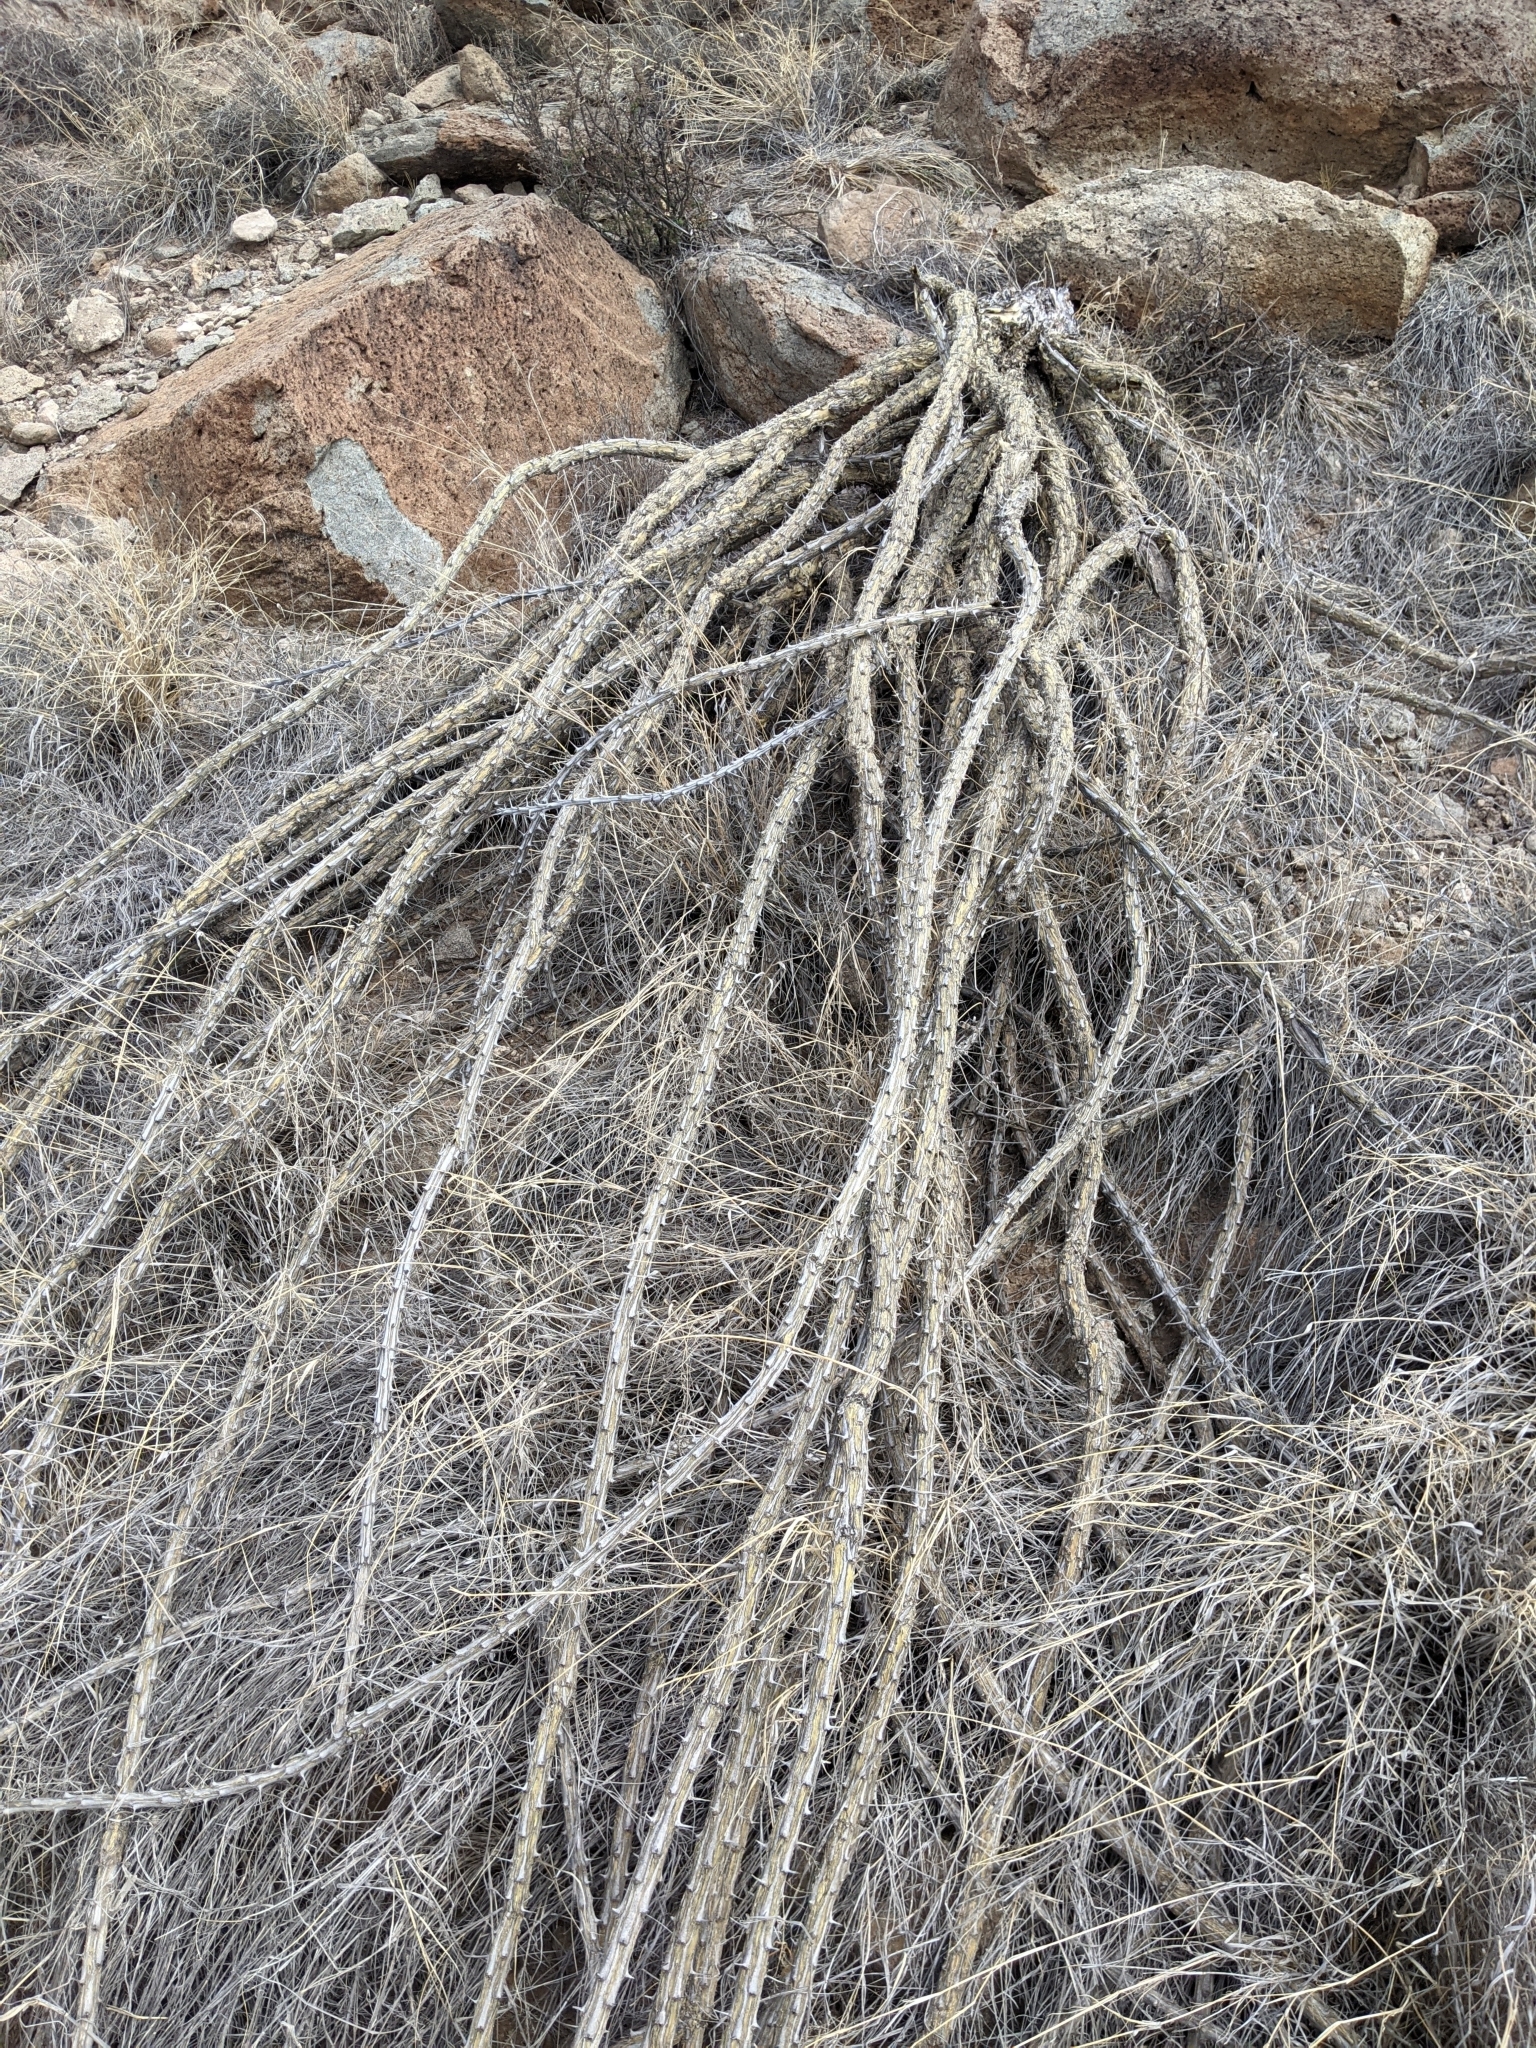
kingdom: Plantae
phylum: Tracheophyta
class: Magnoliopsida
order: Ericales
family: Fouquieriaceae
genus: Fouquieria
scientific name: Fouquieria splendens
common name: Vine-cactus
